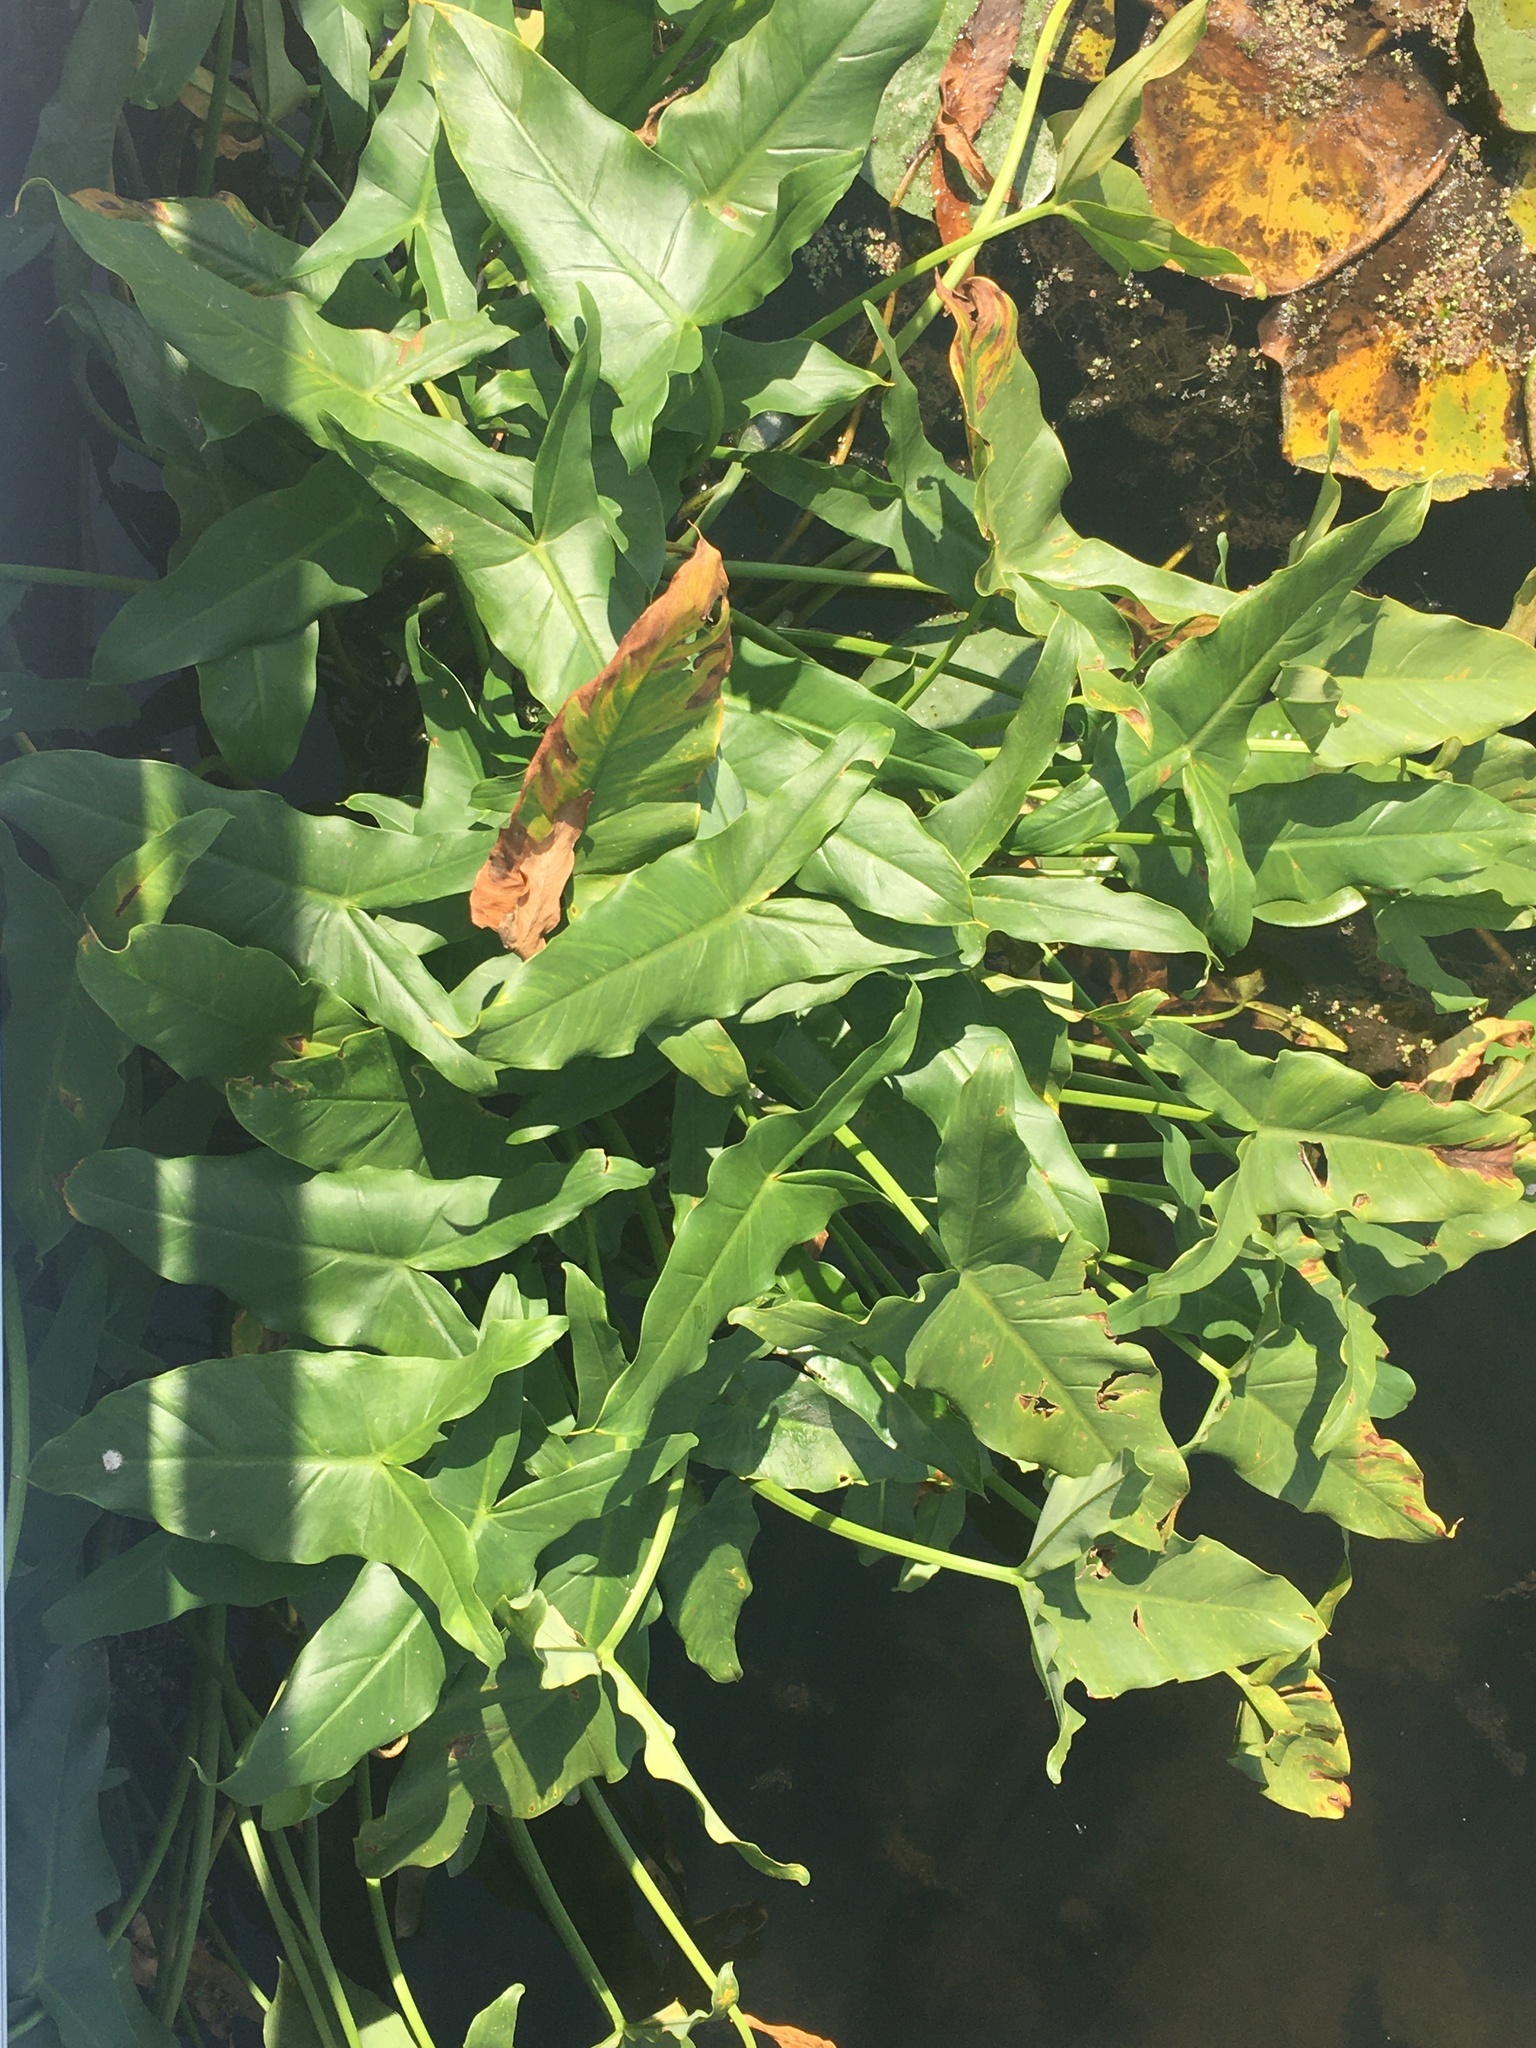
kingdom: Plantae
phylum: Tracheophyta
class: Liliopsida
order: Alismatales
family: Araceae
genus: Peltandra
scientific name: Peltandra virginica
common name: Arrow arum
